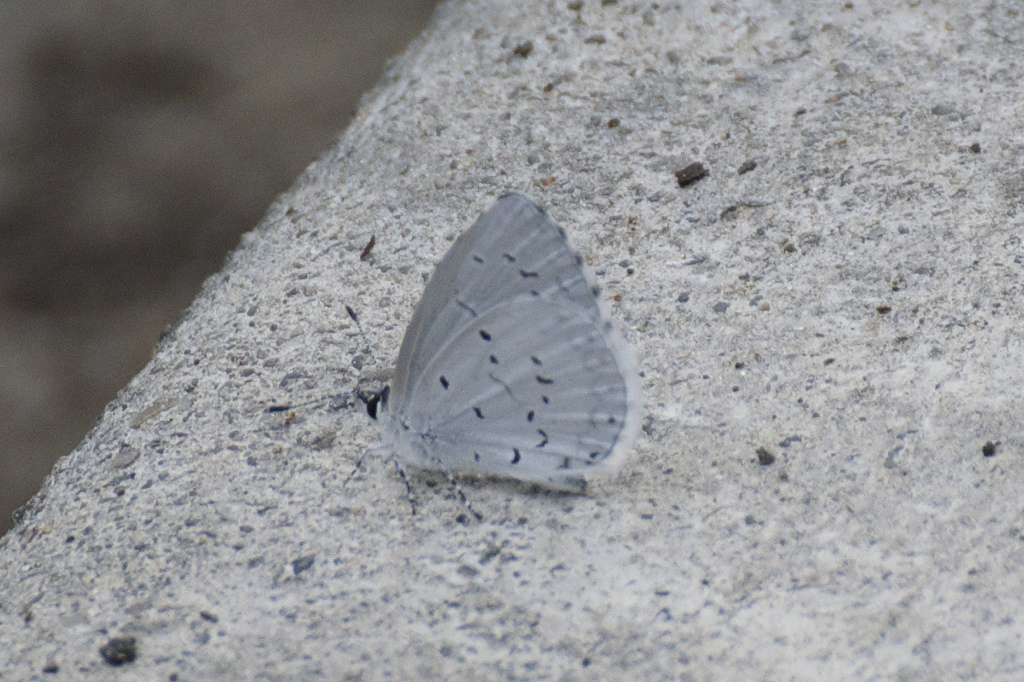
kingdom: Animalia
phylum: Arthropoda
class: Insecta
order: Lepidoptera
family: Lycaenidae
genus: Cyaniris
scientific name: Cyaniris neglecta
